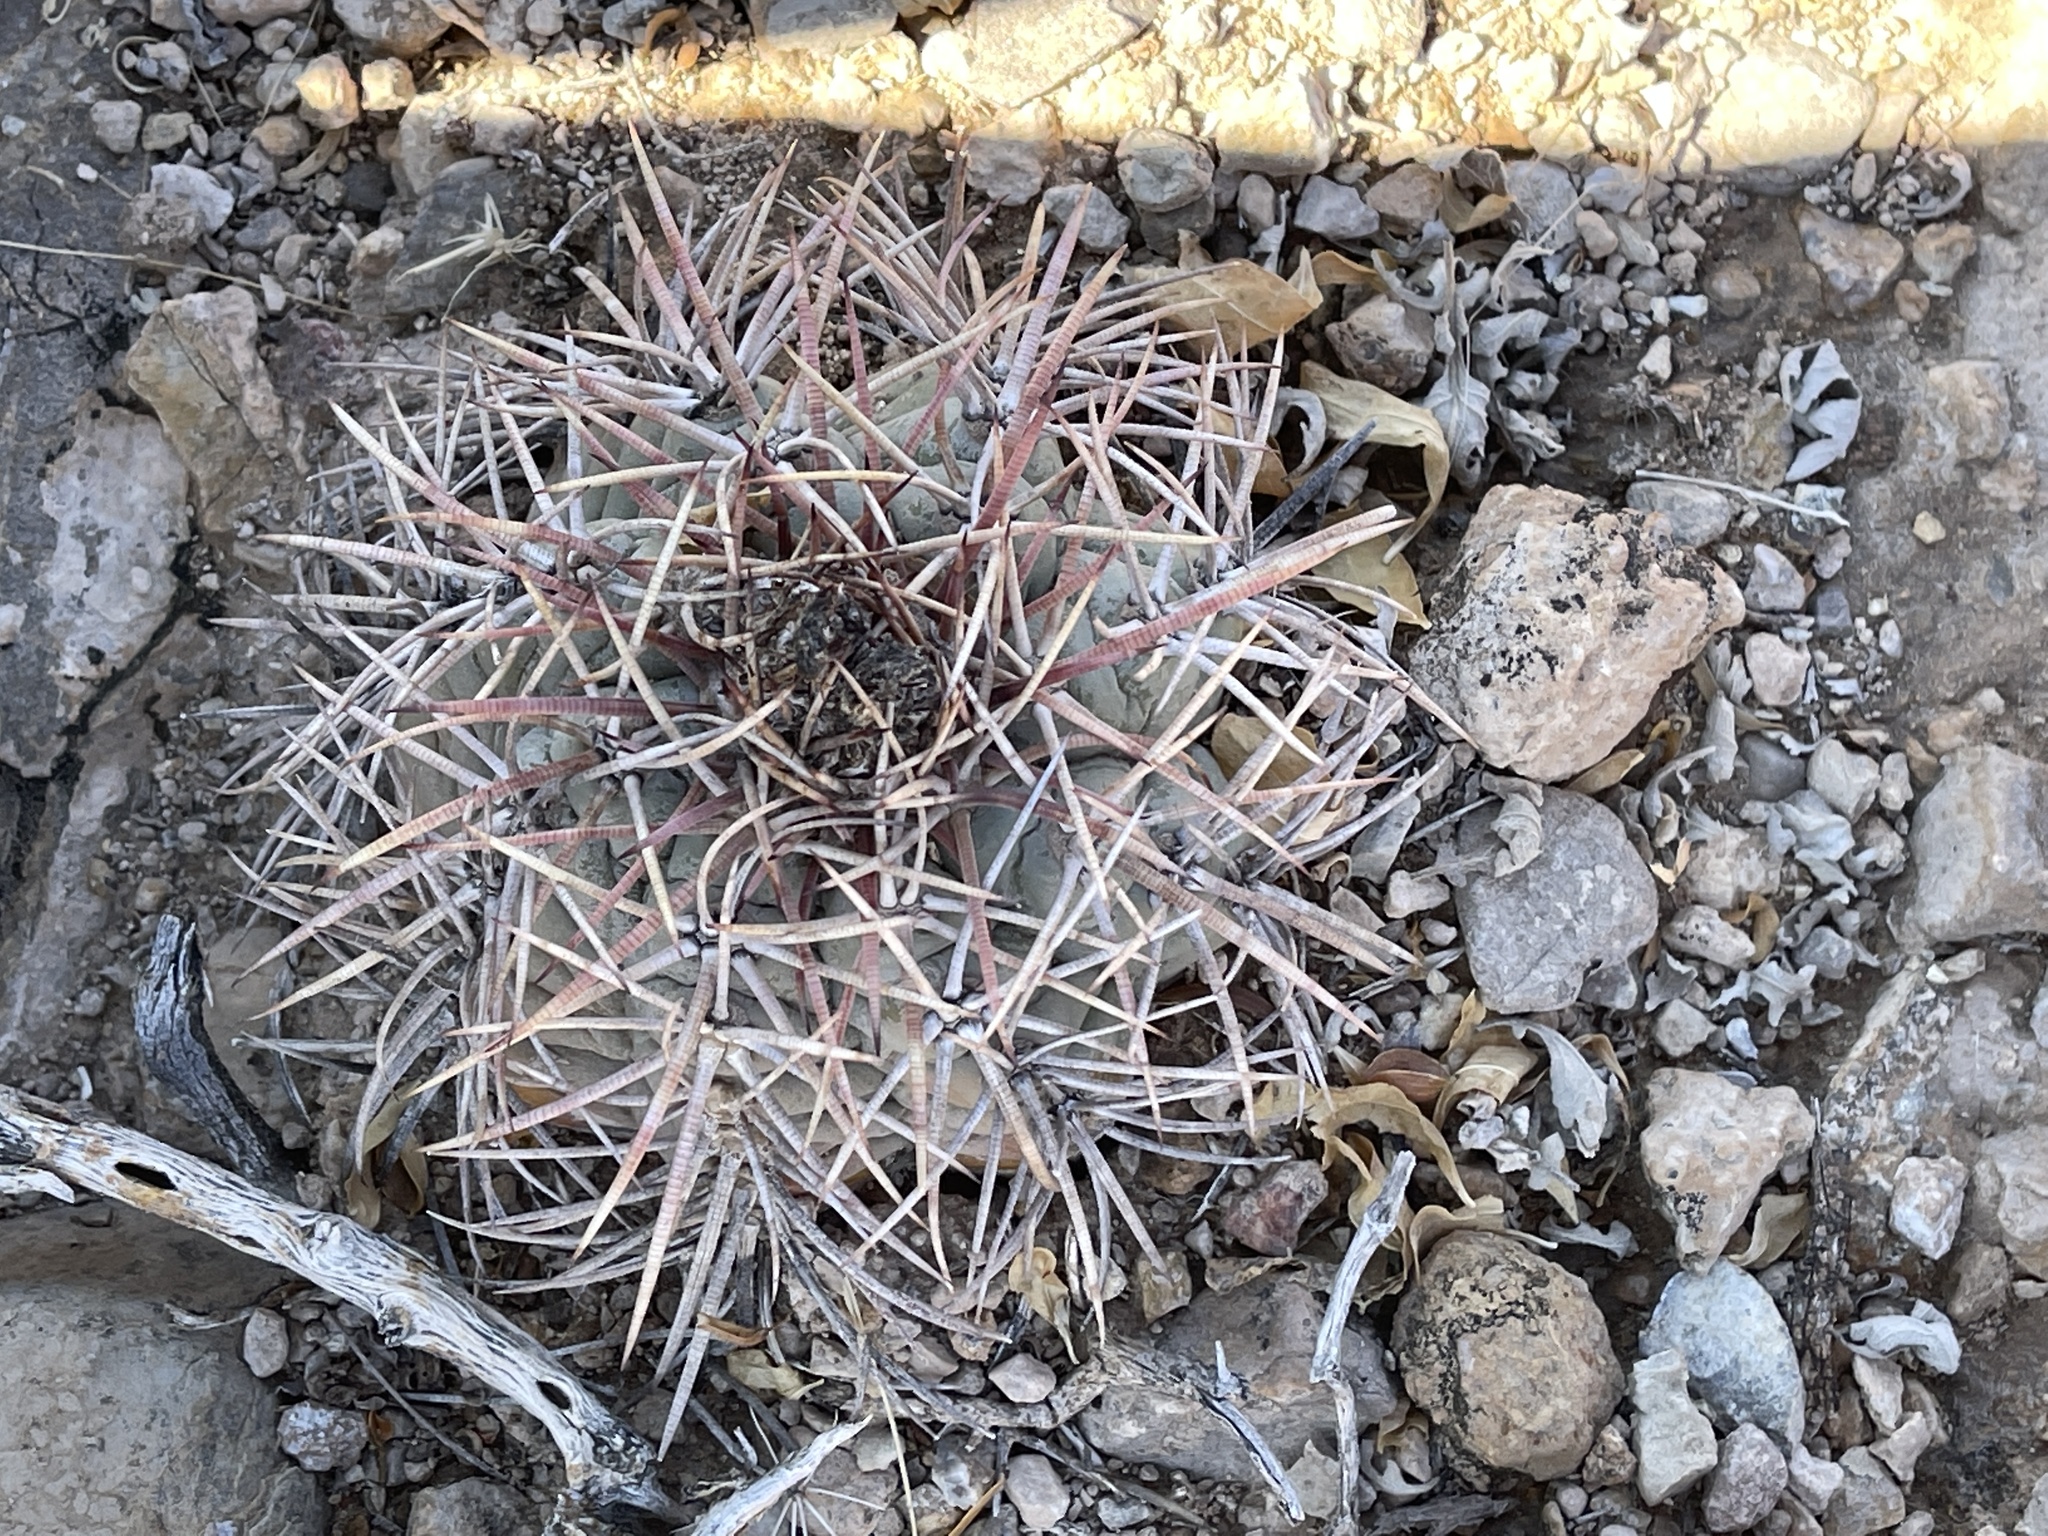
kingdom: Plantae
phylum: Tracheophyta
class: Magnoliopsida
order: Caryophyllales
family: Cactaceae
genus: Echinocactus
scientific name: Echinocactus horizonthalonius
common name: Devilshead
